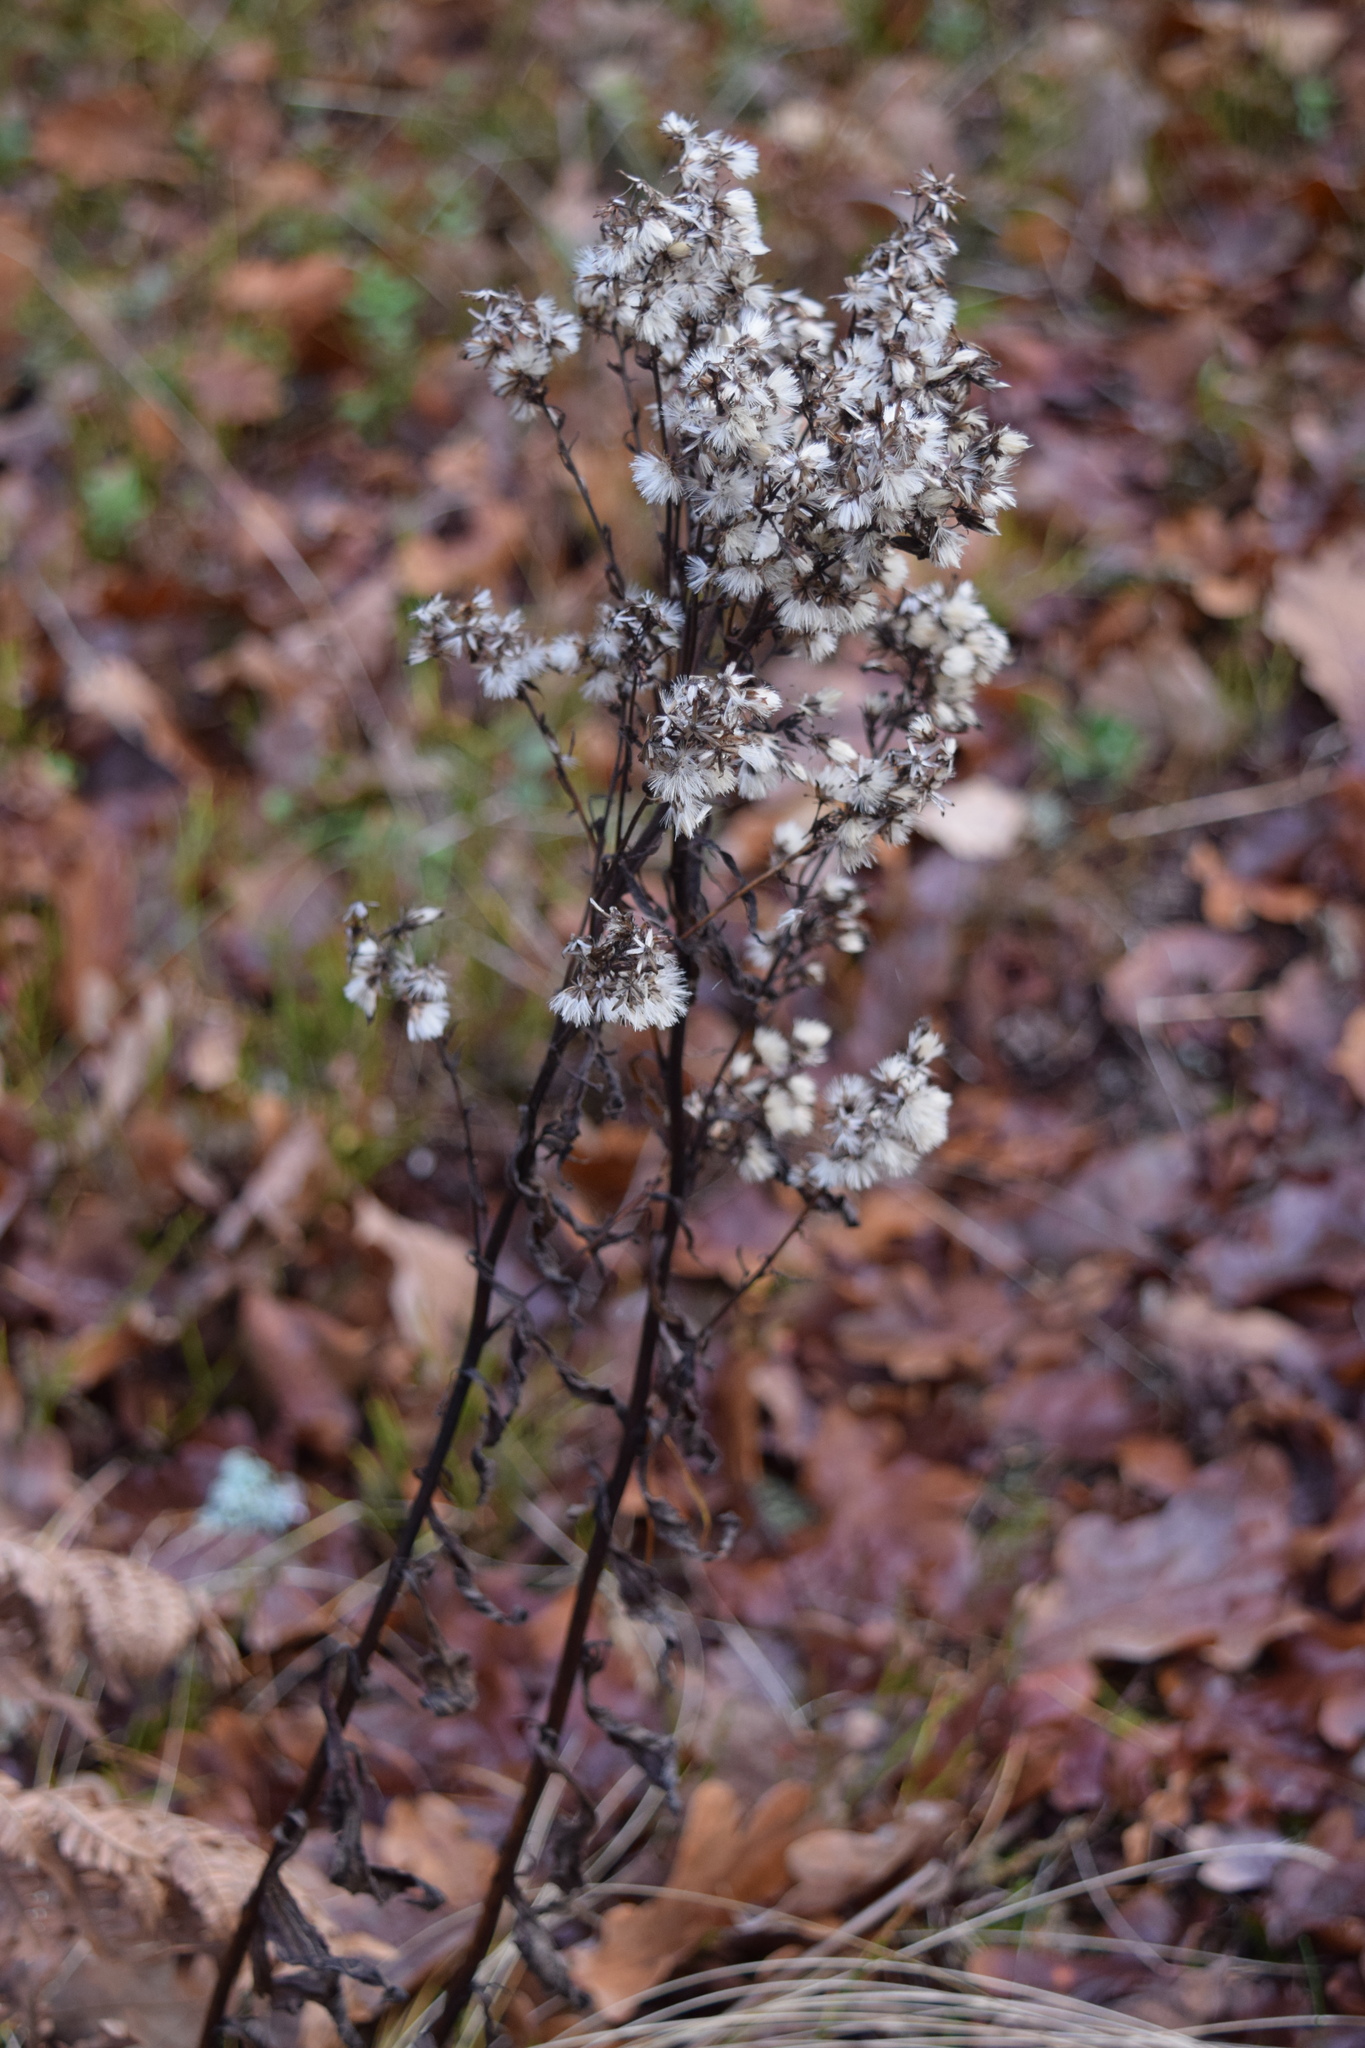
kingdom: Plantae
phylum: Tracheophyta
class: Magnoliopsida
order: Asterales
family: Asteraceae
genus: Solidago
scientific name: Solidago virgaurea
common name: Goldenrod
